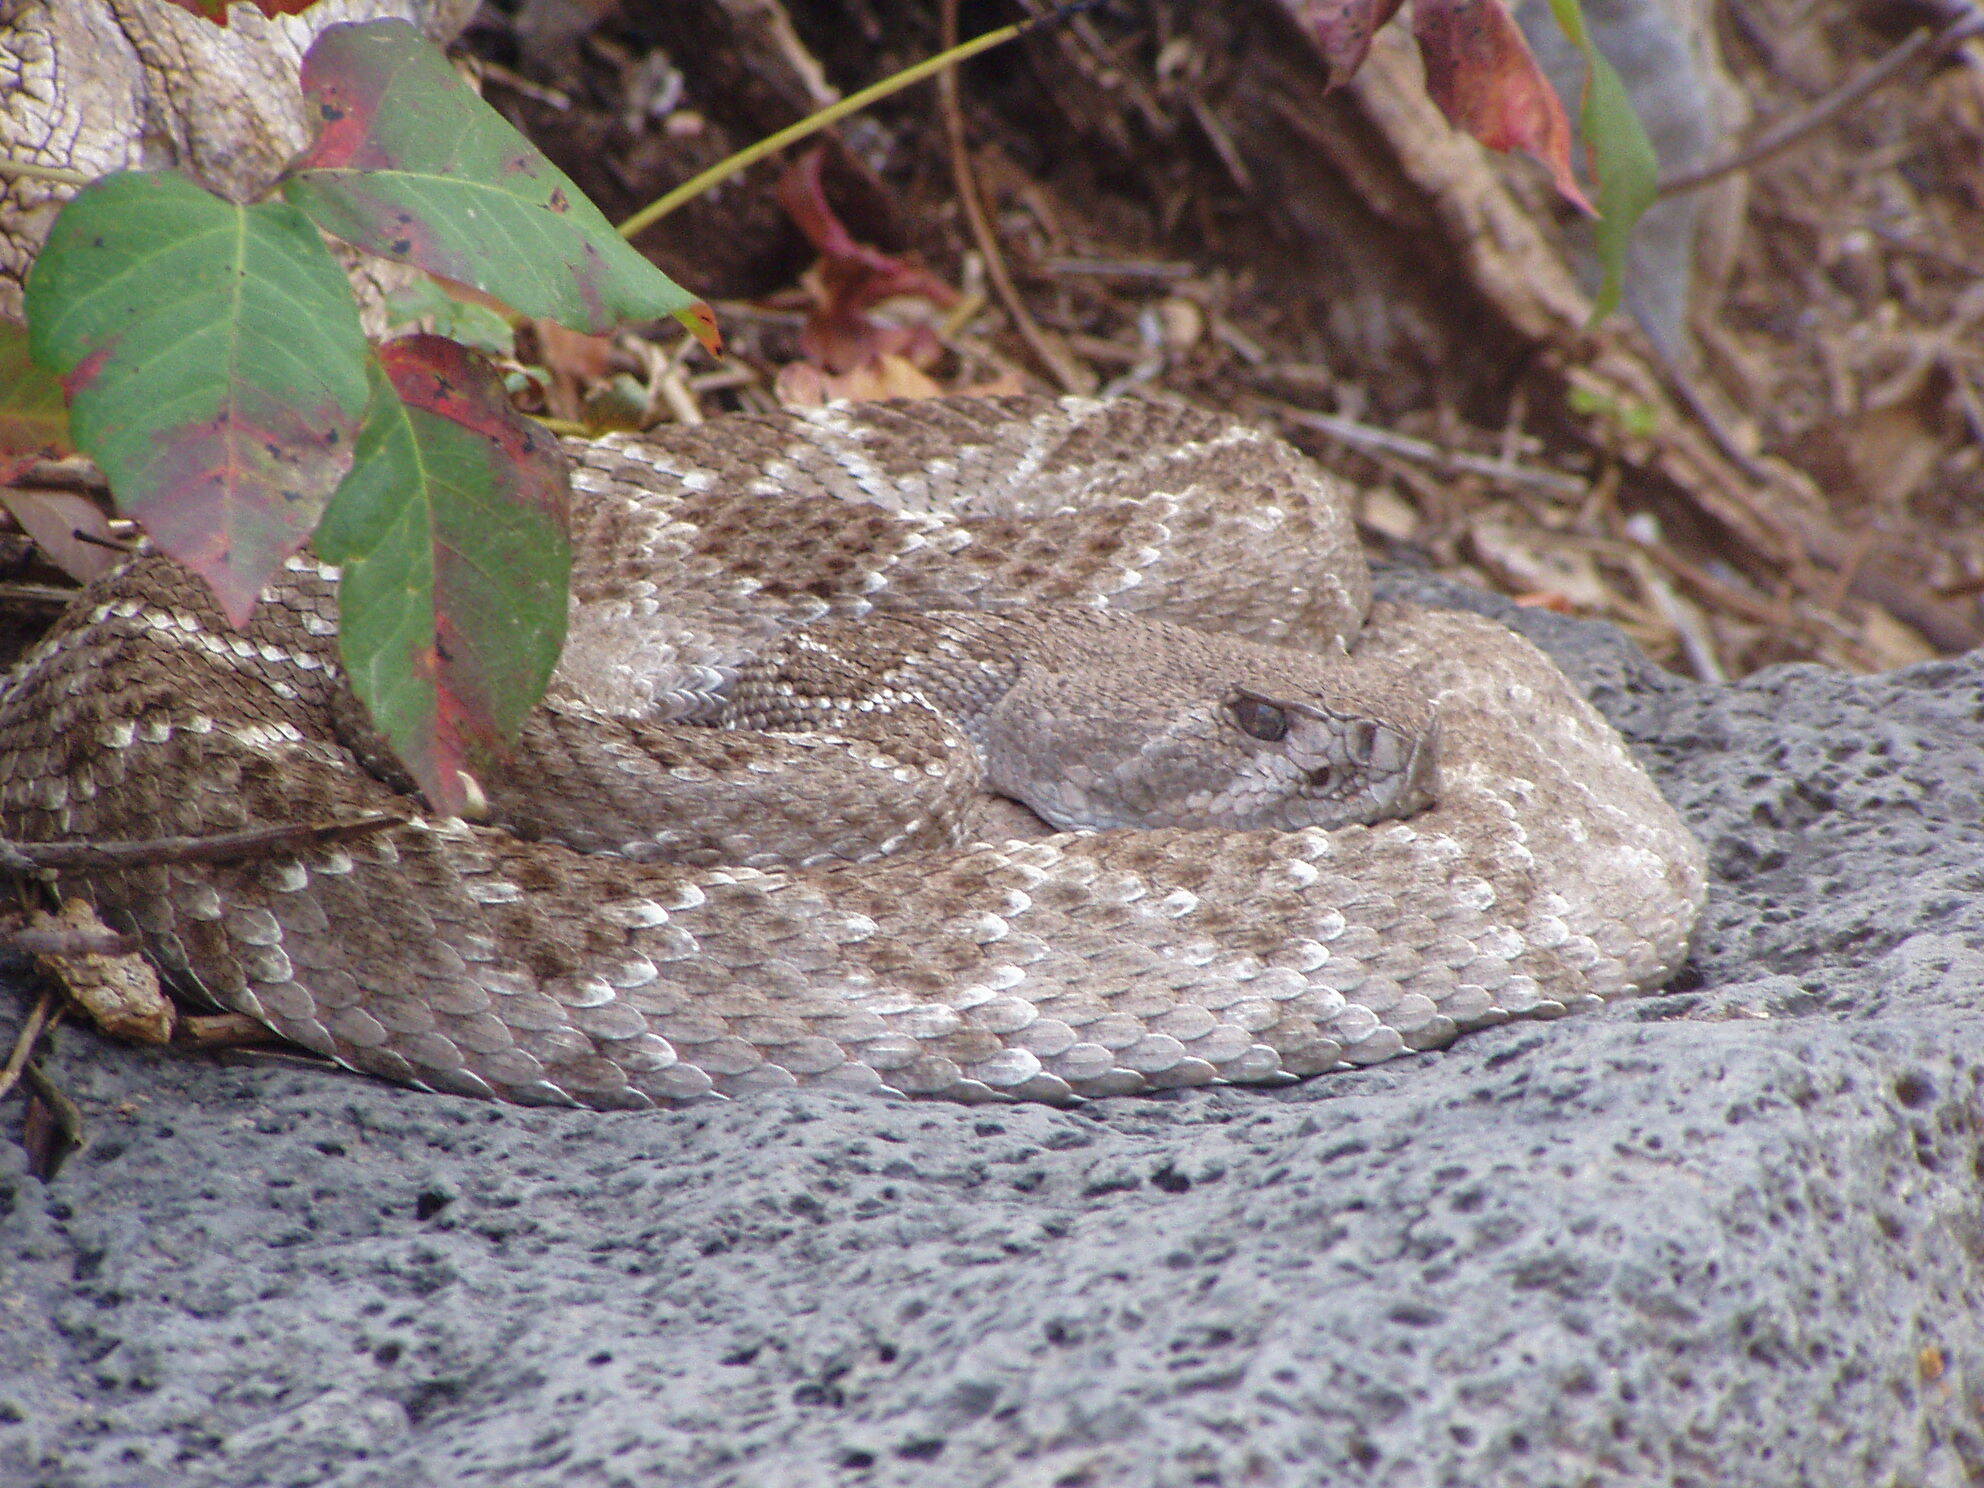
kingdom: Animalia
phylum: Chordata
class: Squamata
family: Viperidae
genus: Crotalus
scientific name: Crotalus atrox
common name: Western diamond-backed rattlesnake
